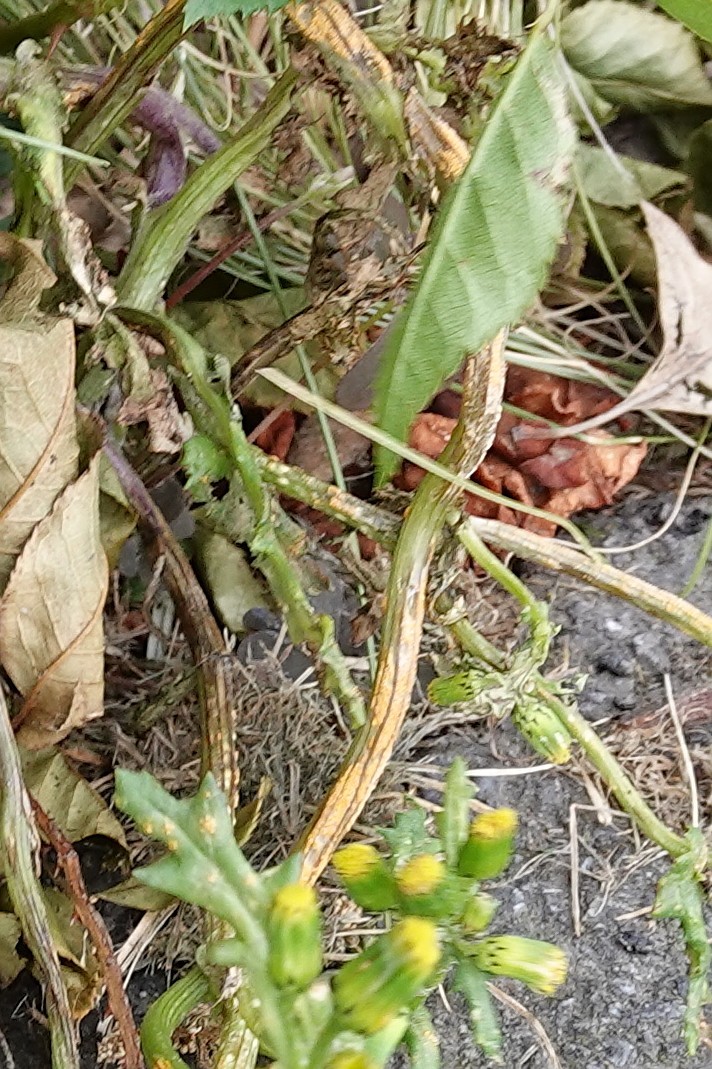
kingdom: Fungi
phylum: Basidiomycota
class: Pucciniomycetes
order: Pucciniales
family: Pucciniaceae
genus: Puccinia
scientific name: Puccinia lagenophorae
